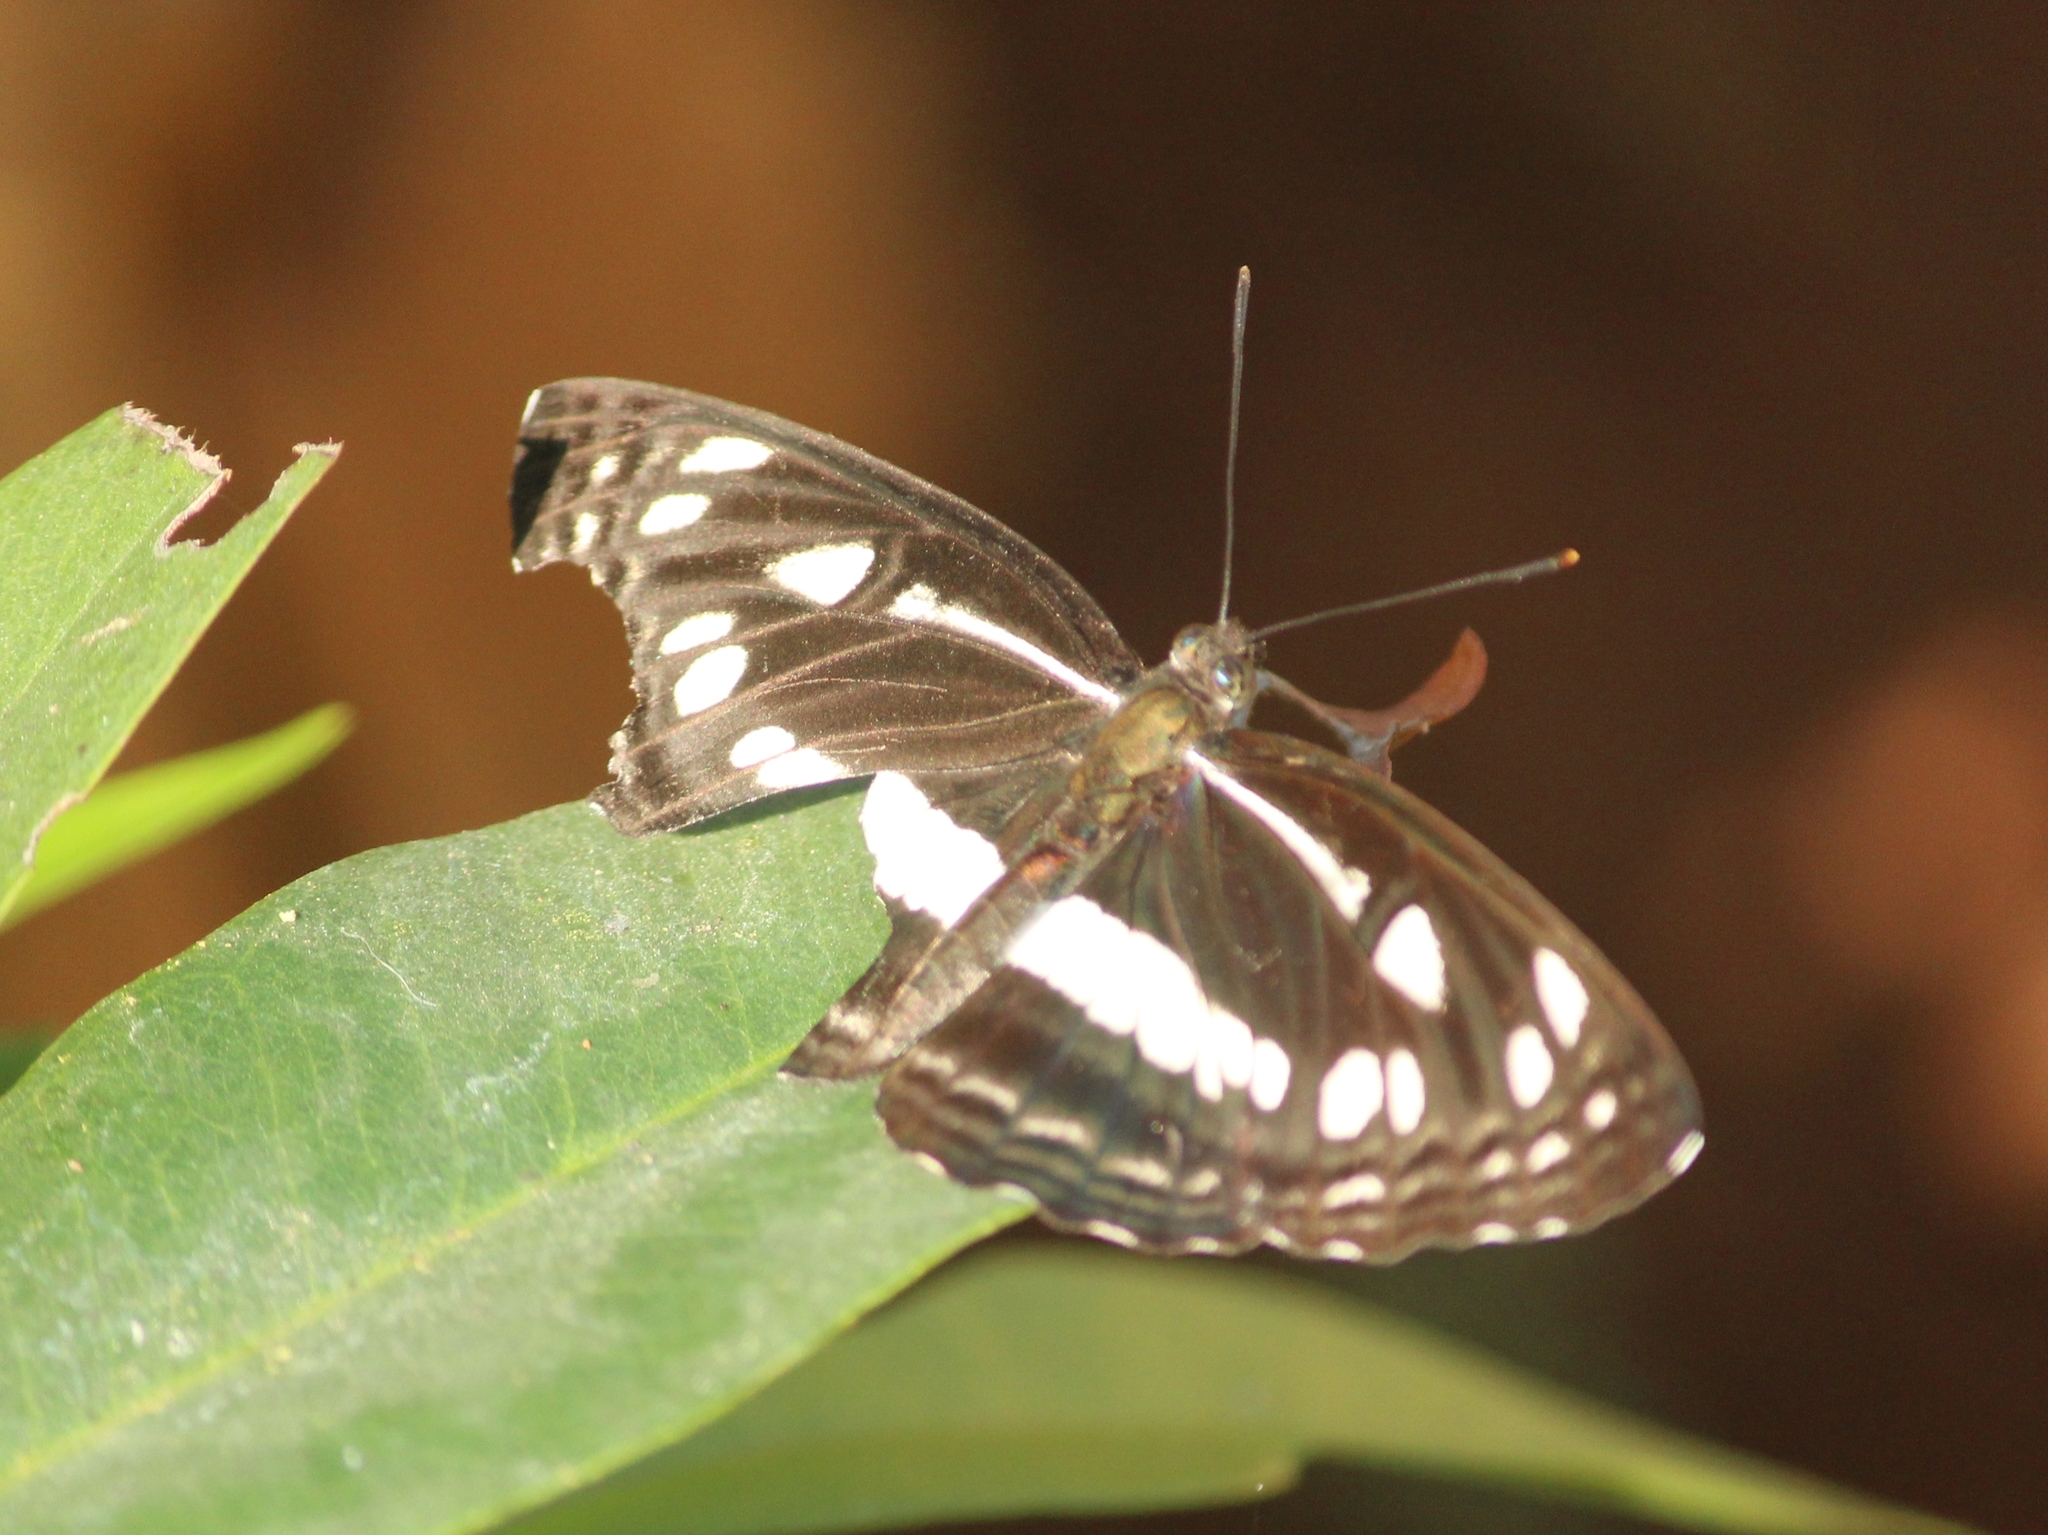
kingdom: Animalia
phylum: Arthropoda
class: Insecta
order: Lepidoptera
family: Nymphalidae
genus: Neptis
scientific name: Neptis jumbah
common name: Chestnut-streaked sailer
